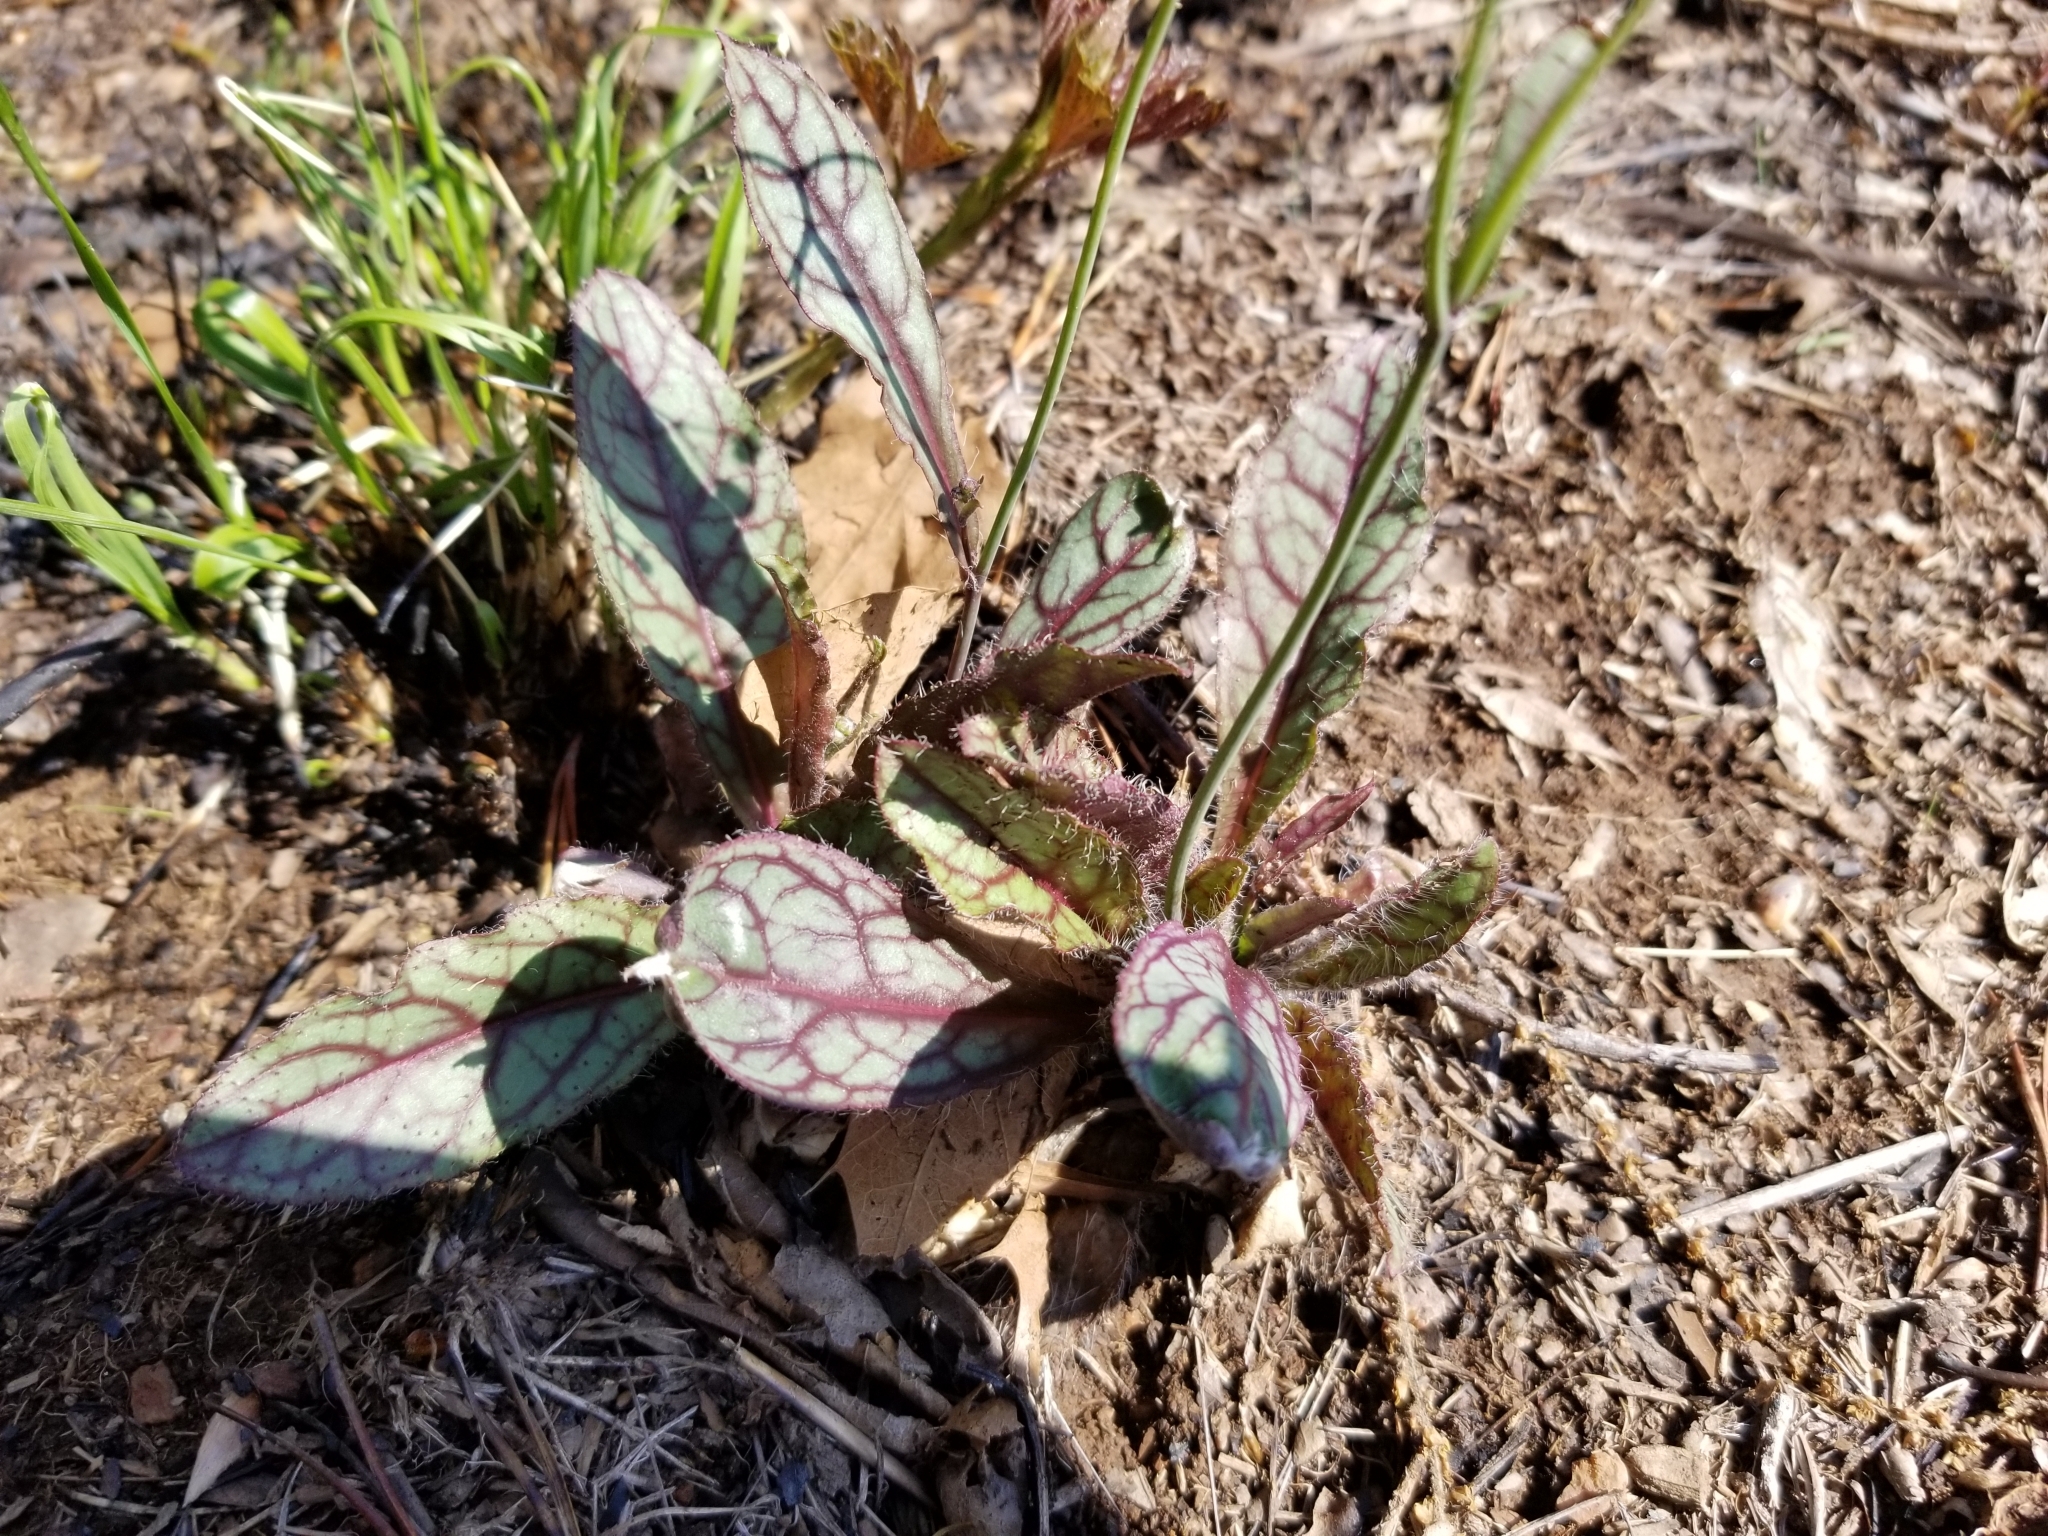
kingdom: Plantae
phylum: Tracheophyta
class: Magnoliopsida
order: Asterales
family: Asteraceae
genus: Hieracium
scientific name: Hieracium venosum
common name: Rattlesnake hawkweed
